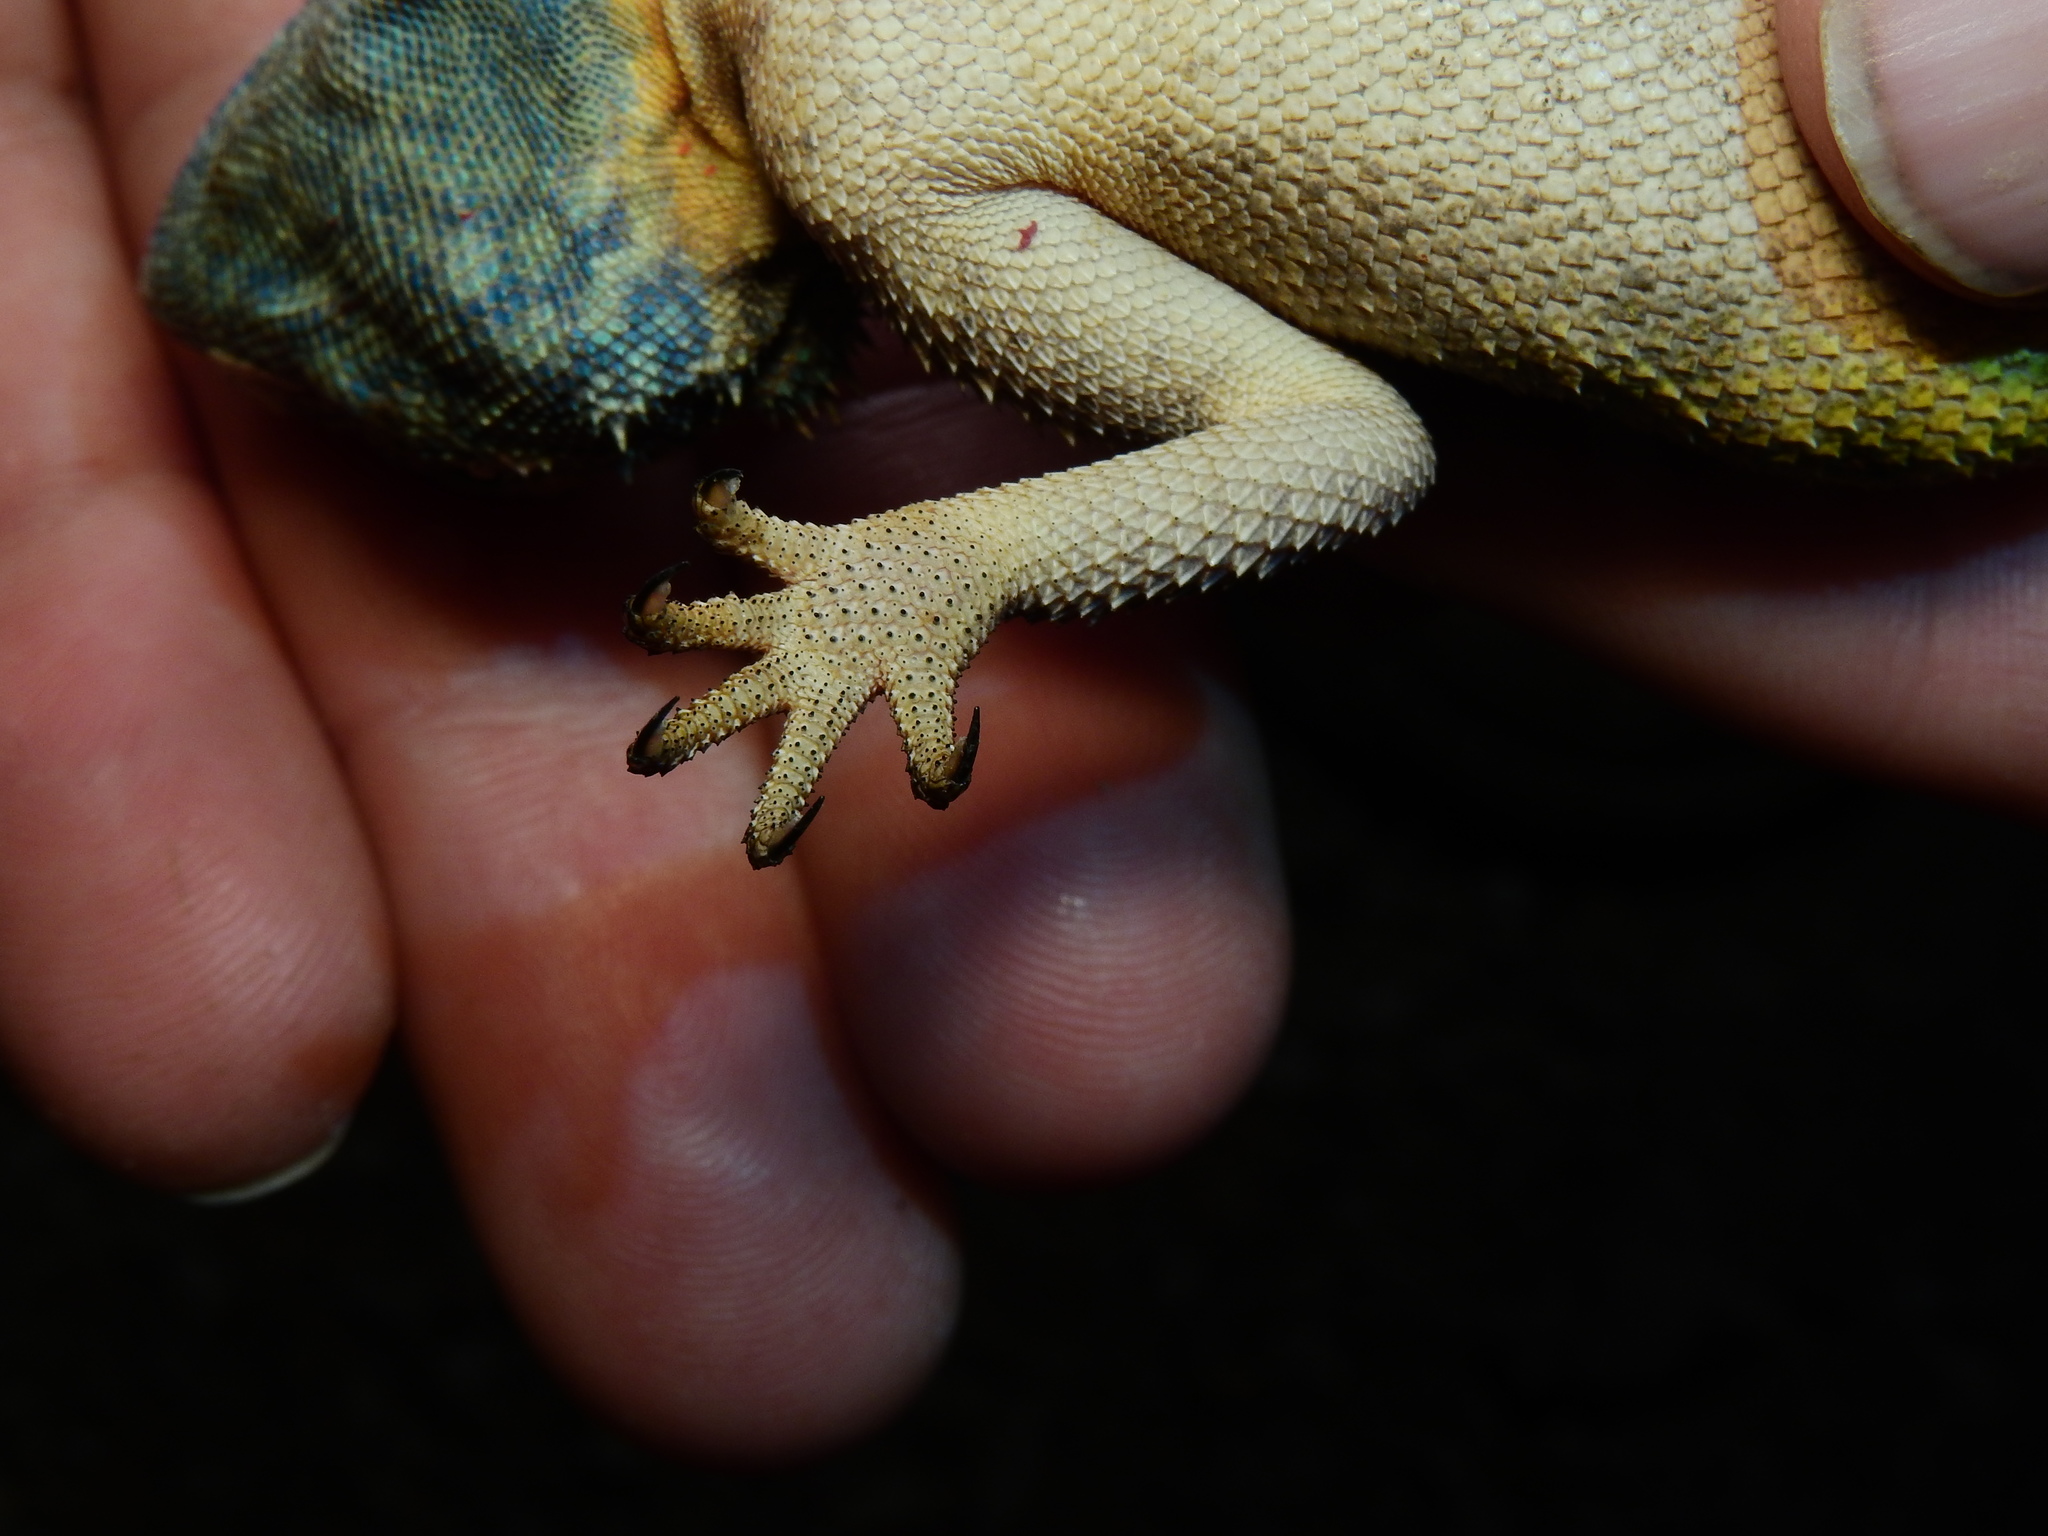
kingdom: Animalia
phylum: Chordata
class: Squamata
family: Agamidae
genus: Agama
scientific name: Agama anchietae
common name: Anchieta's agama
